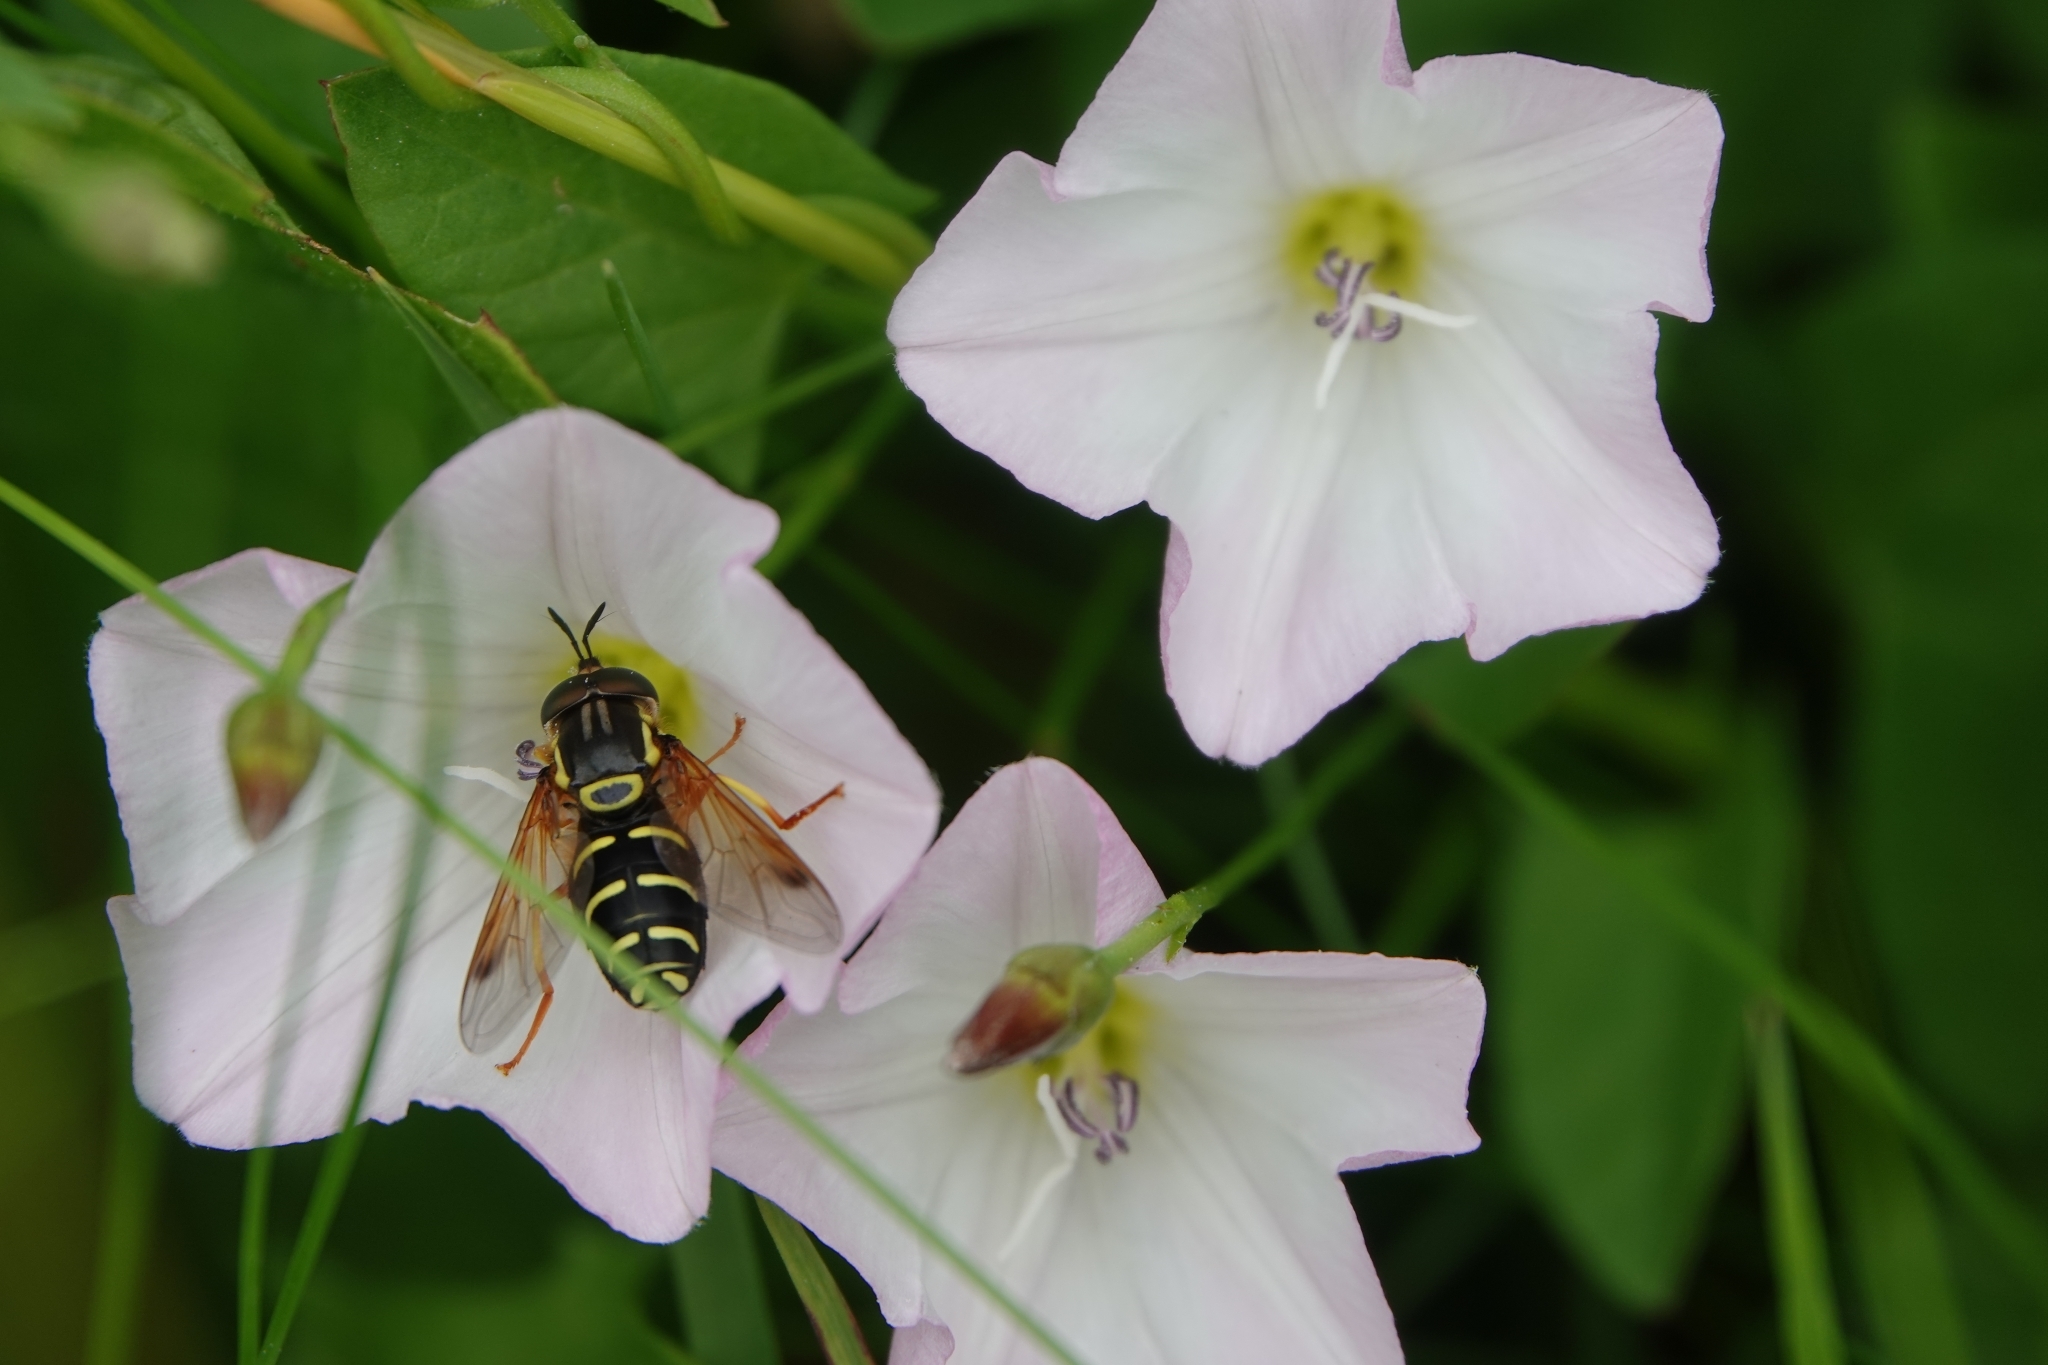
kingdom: Animalia
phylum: Arthropoda
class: Insecta
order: Diptera
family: Syrphidae
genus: Chrysotoxum
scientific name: Chrysotoxum festivum
